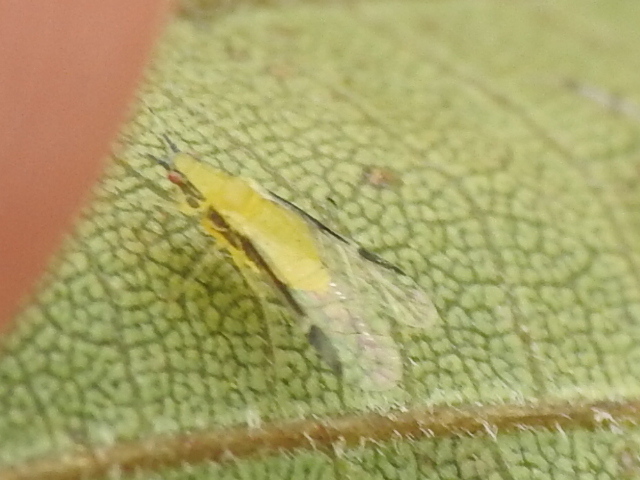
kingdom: Animalia
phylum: Arthropoda
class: Insecta
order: Hemiptera
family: Aphididae
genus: Monellia
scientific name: Monellia caryella
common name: Blackmargined aphid
